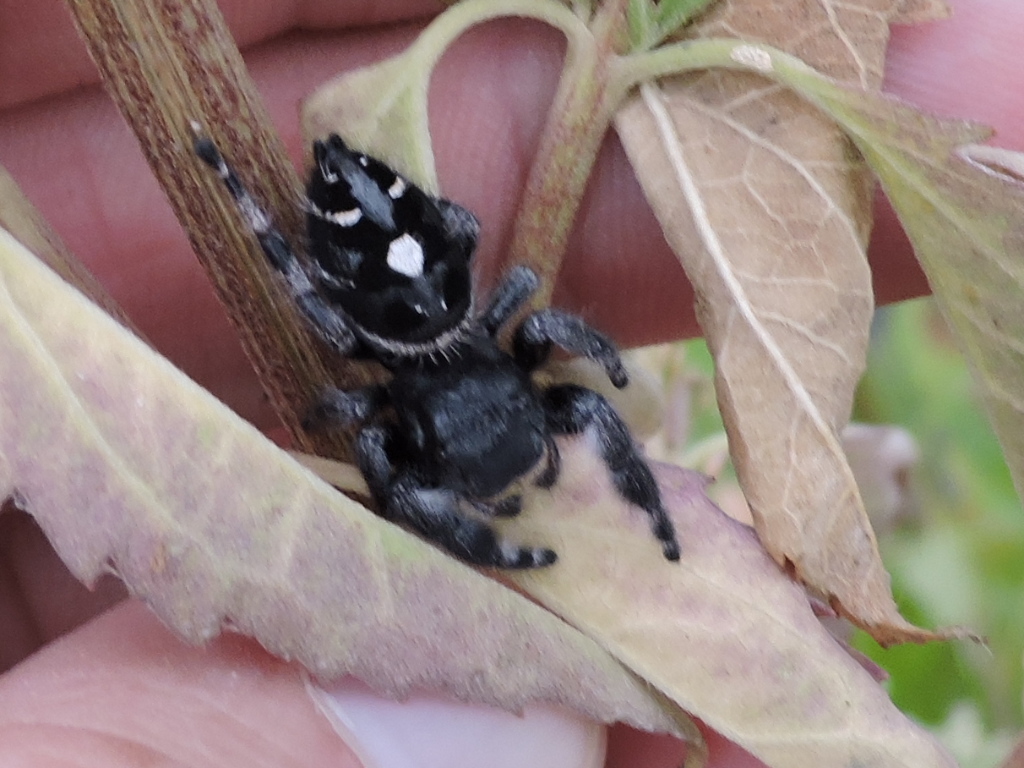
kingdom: Animalia
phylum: Arthropoda
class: Arachnida
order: Araneae
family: Salticidae
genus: Phidippus
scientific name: Phidippus audax
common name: Bold jumper
